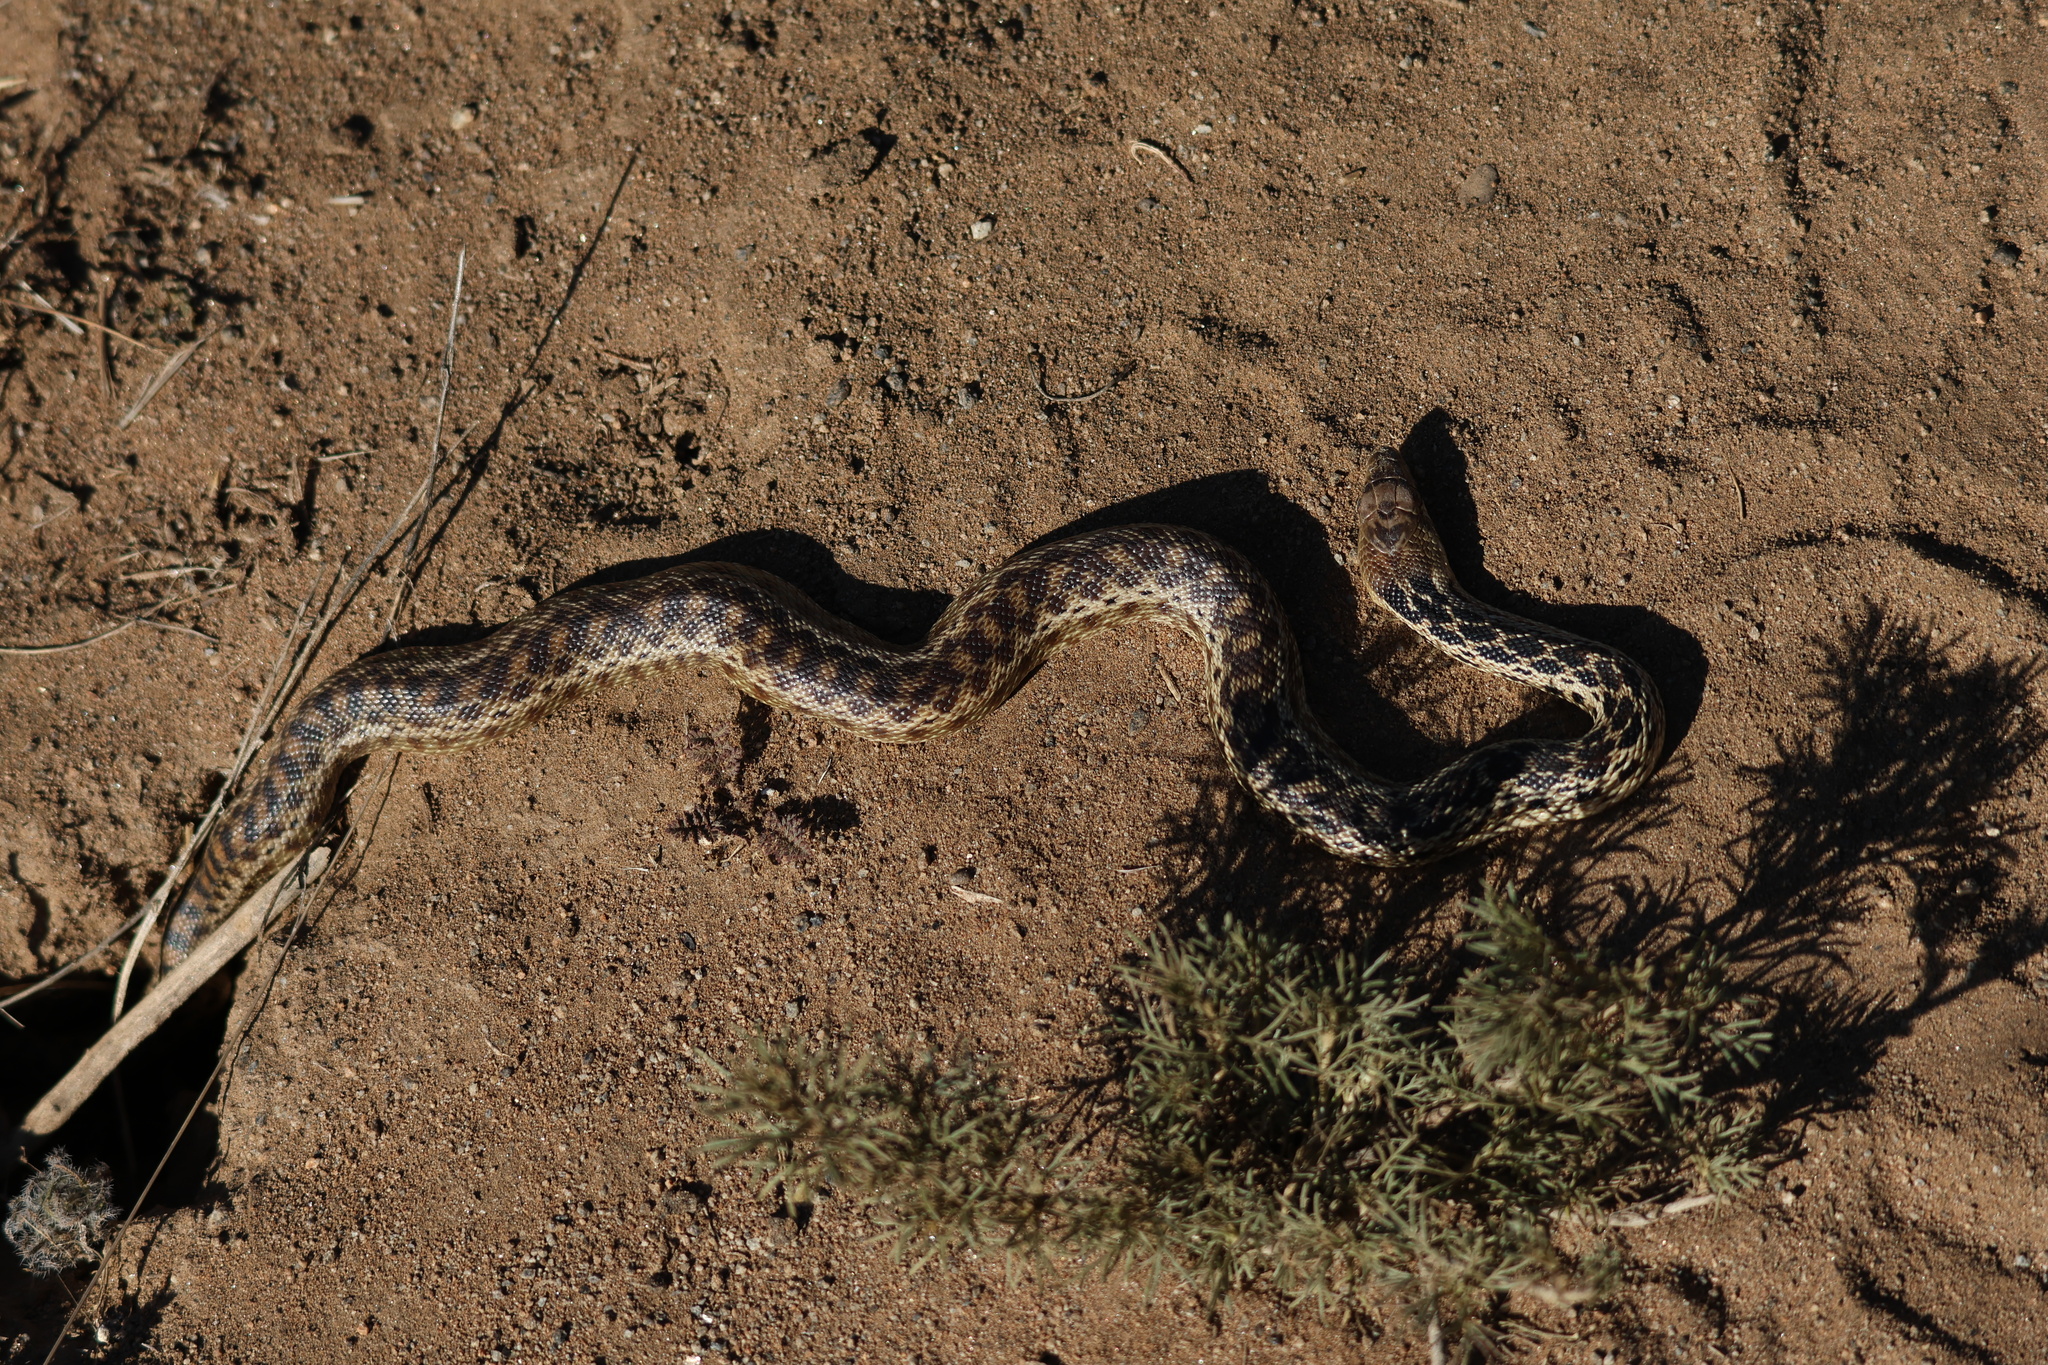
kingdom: Animalia
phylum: Chordata
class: Squamata
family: Colubridae
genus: Pituophis
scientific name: Pituophis catenifer
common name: Gopher snake
